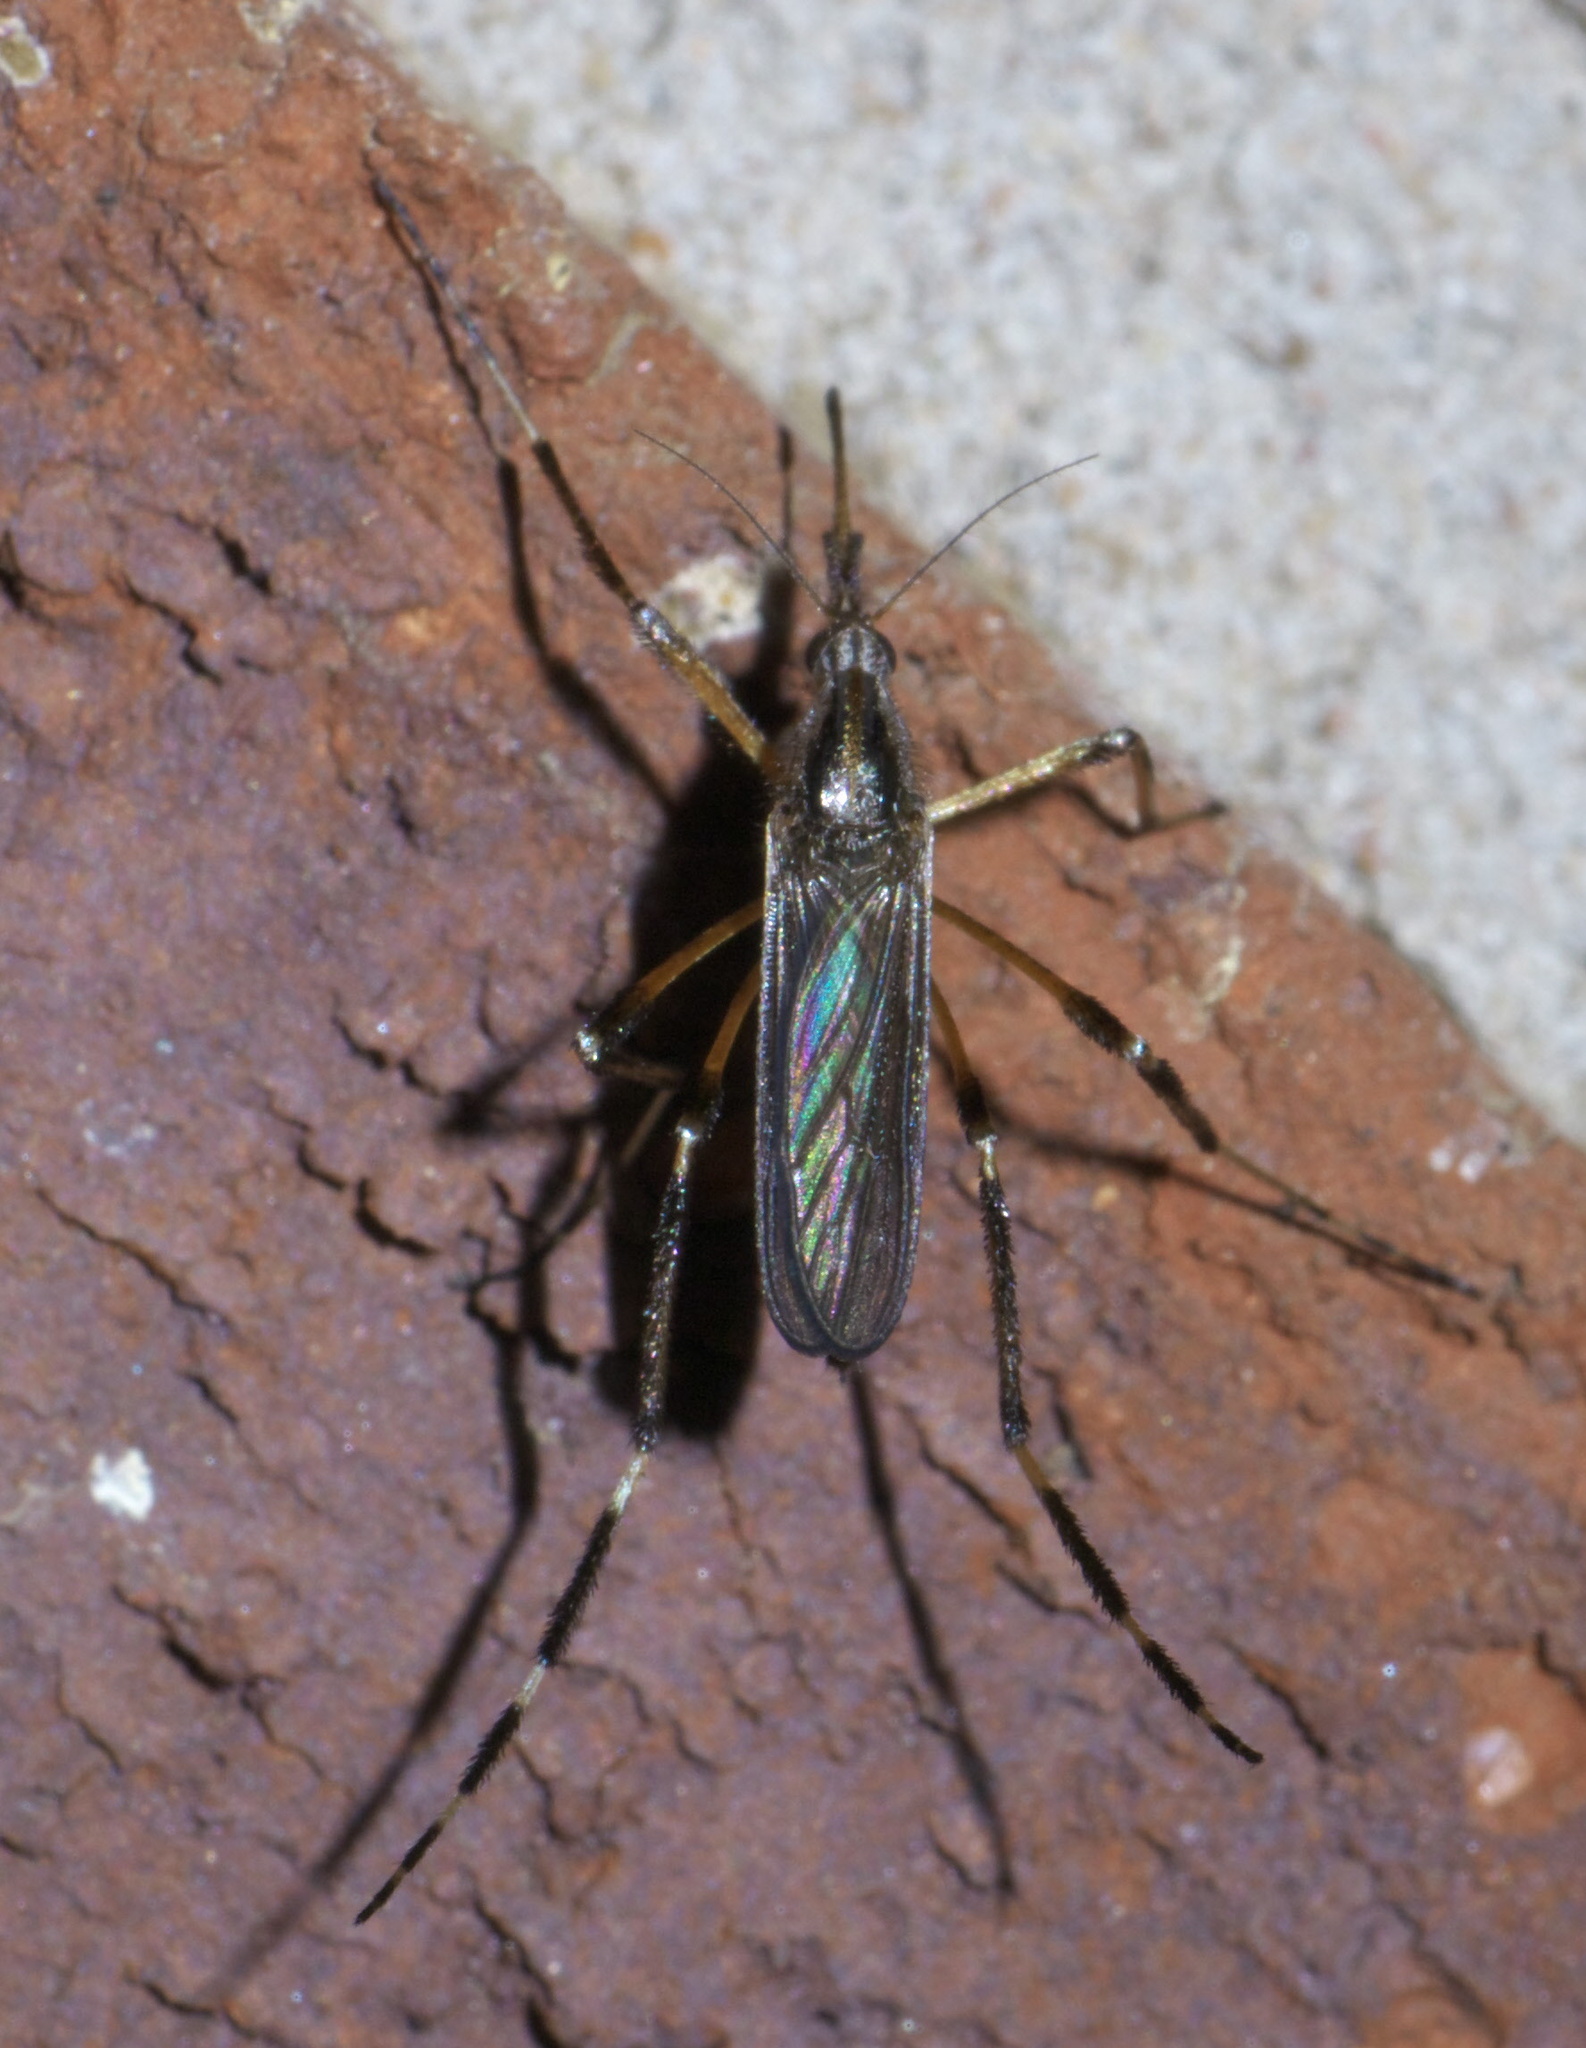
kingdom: Animalia
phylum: Arthropoda
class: Insecta
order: Diptera
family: Culicidae
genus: Psorophora
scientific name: Psorophora ciliata
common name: Gallinipper
